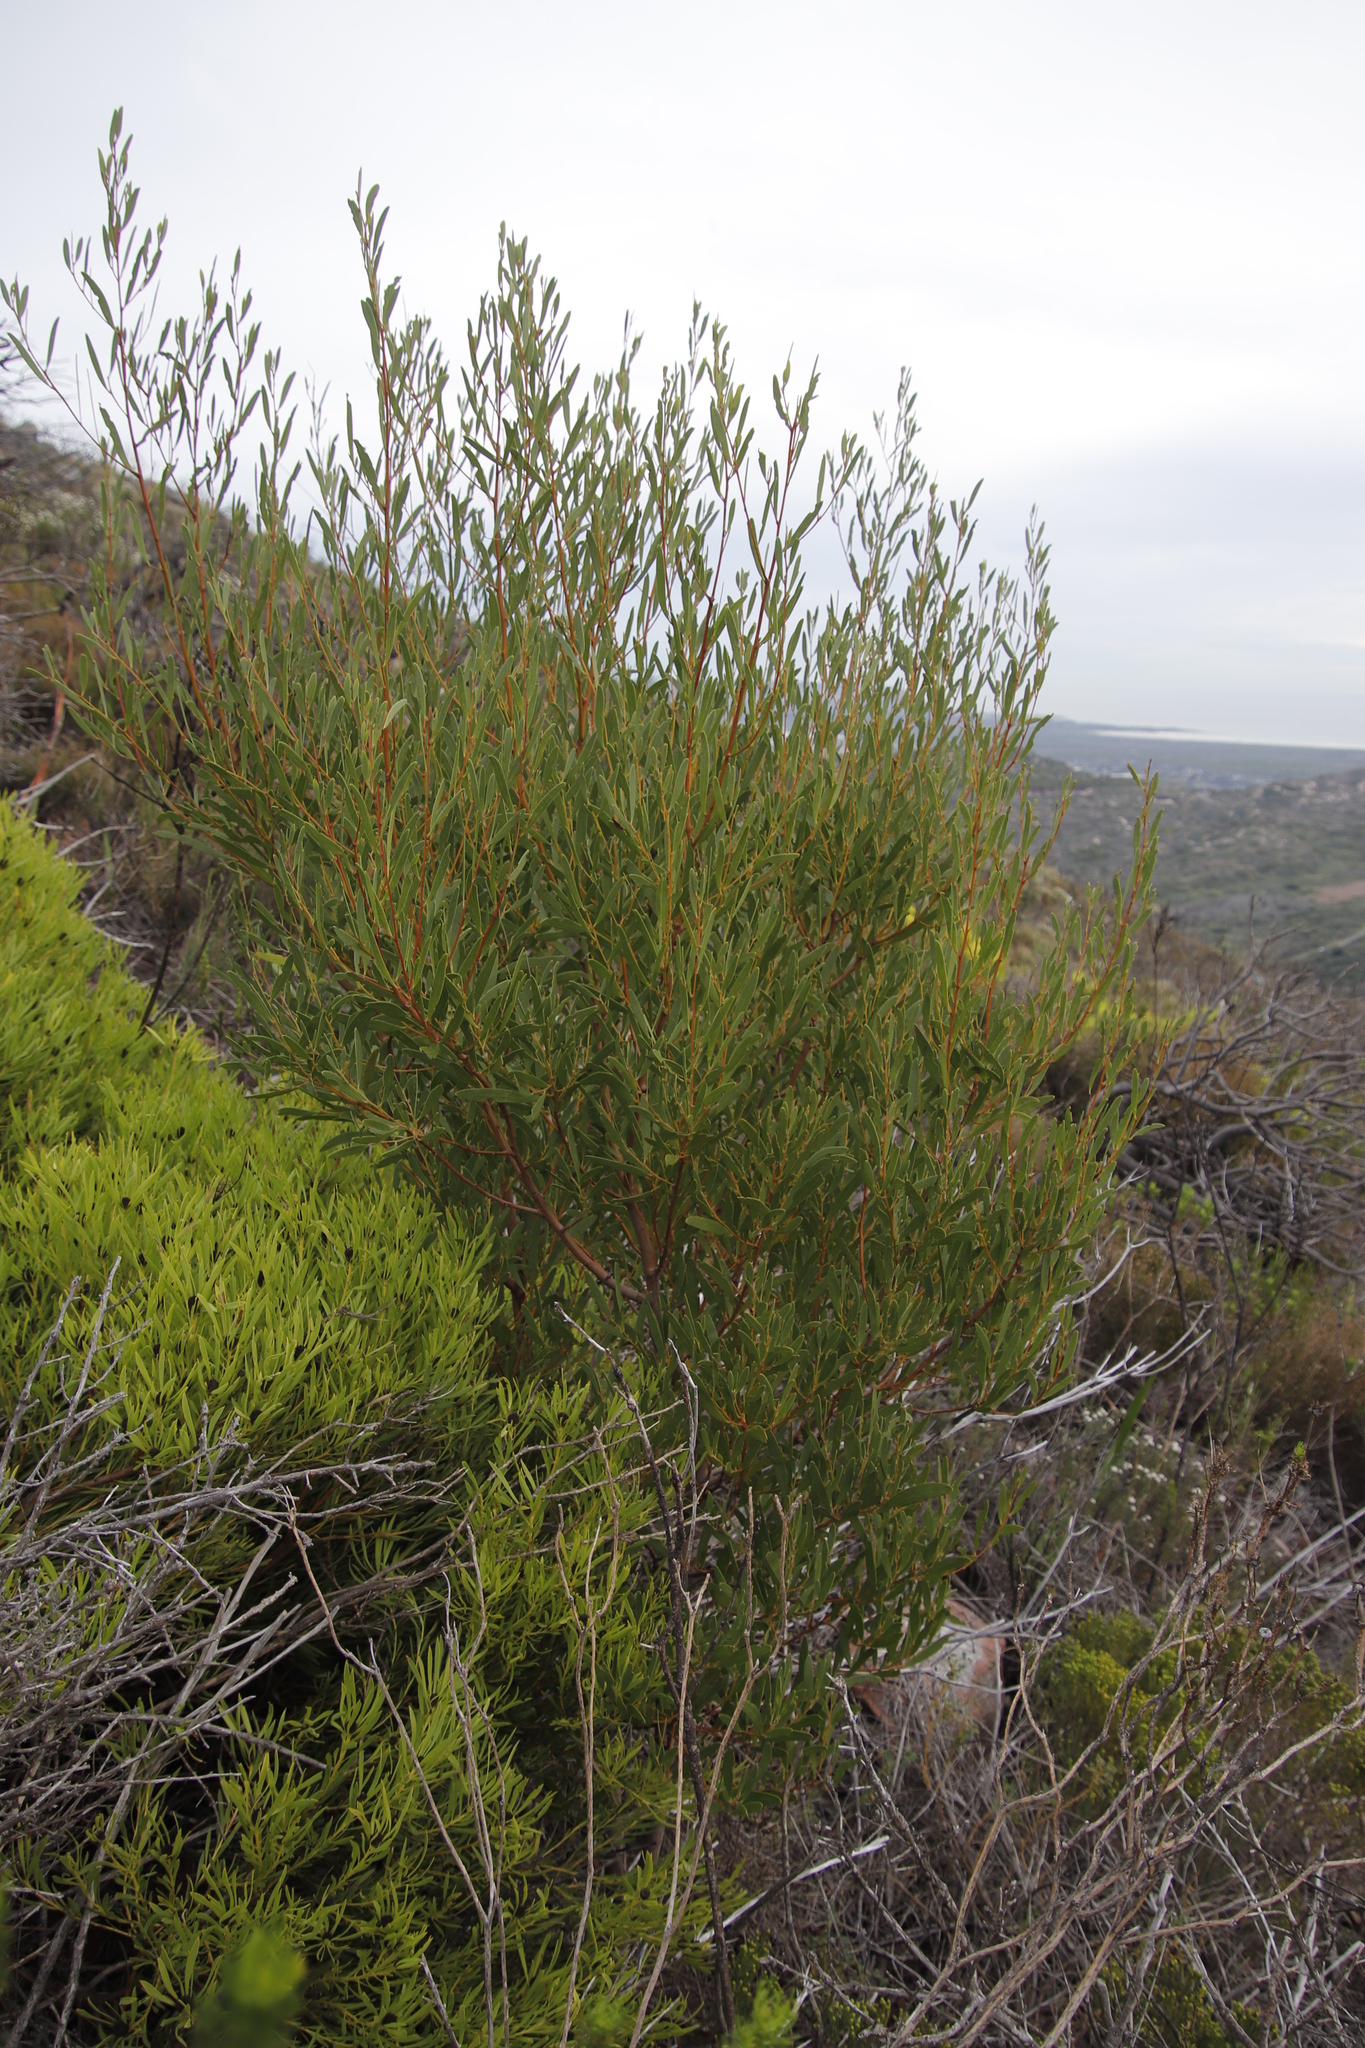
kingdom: Plantae
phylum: Tracheophyta
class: Magnoliopsida
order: Fabales
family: Fabaceae
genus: Acacia
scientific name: Acacia cyclops
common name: Coastal wattle
